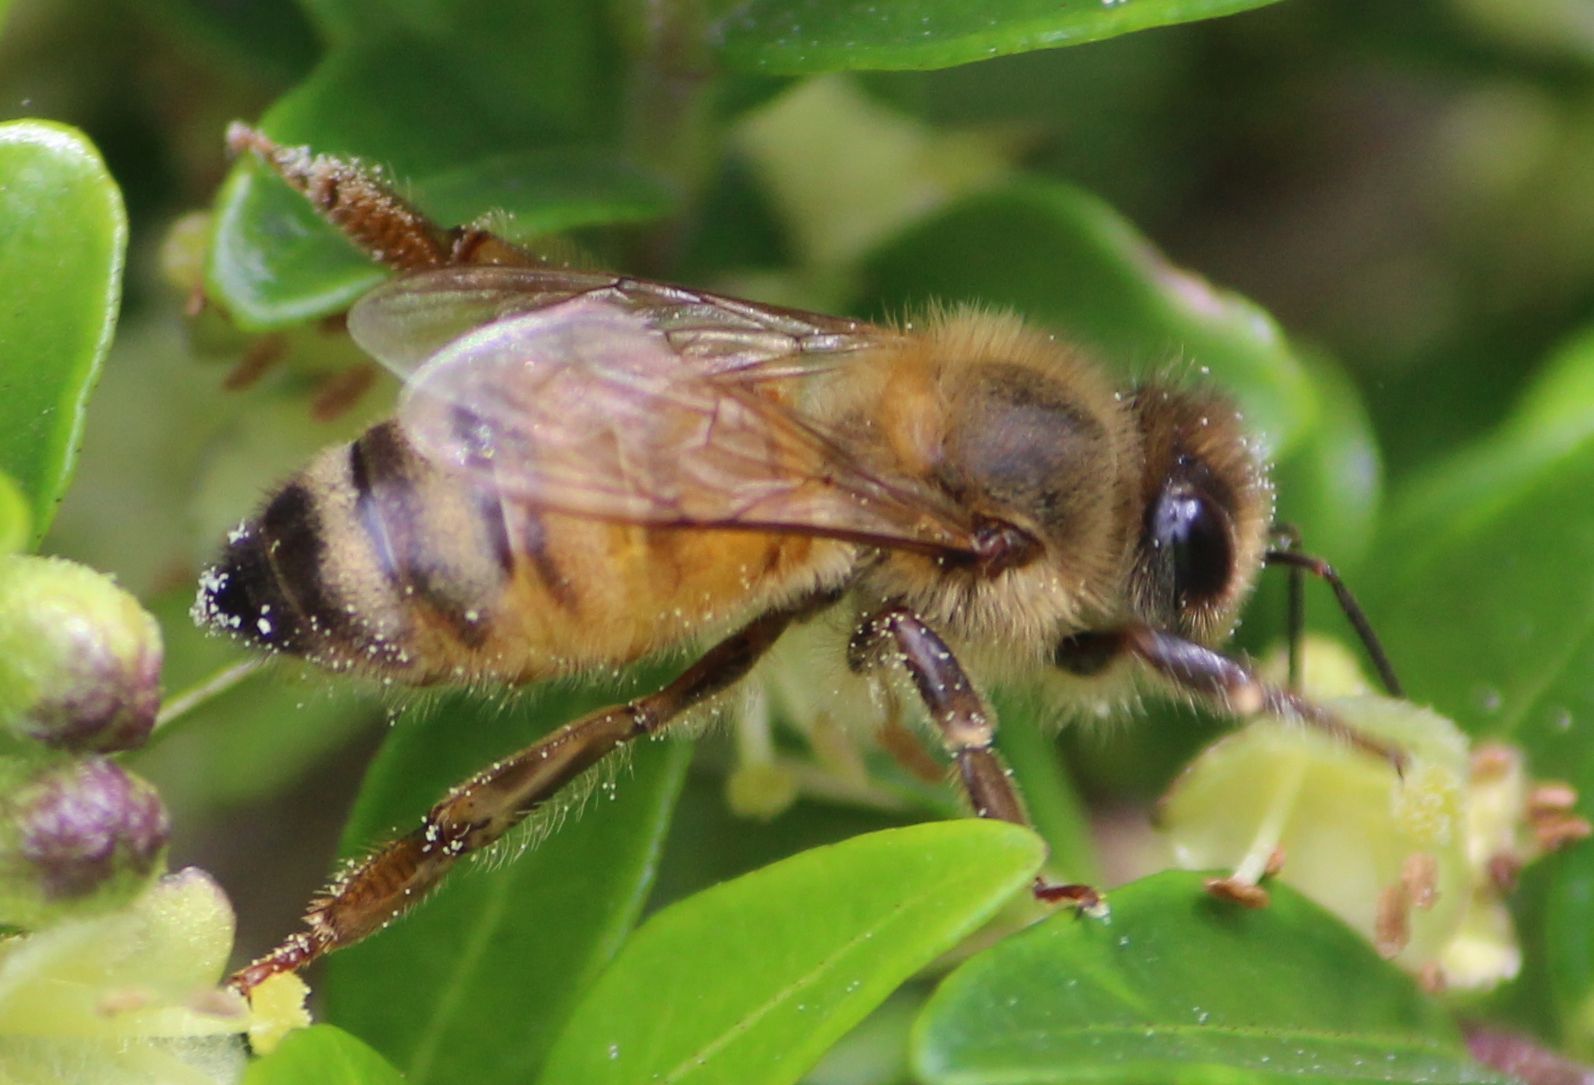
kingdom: Animalia
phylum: Arthropoda
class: Insecta
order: Hymenoptera
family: Apidae
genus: Apis
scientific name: Apis mellifera
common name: Honey bee
